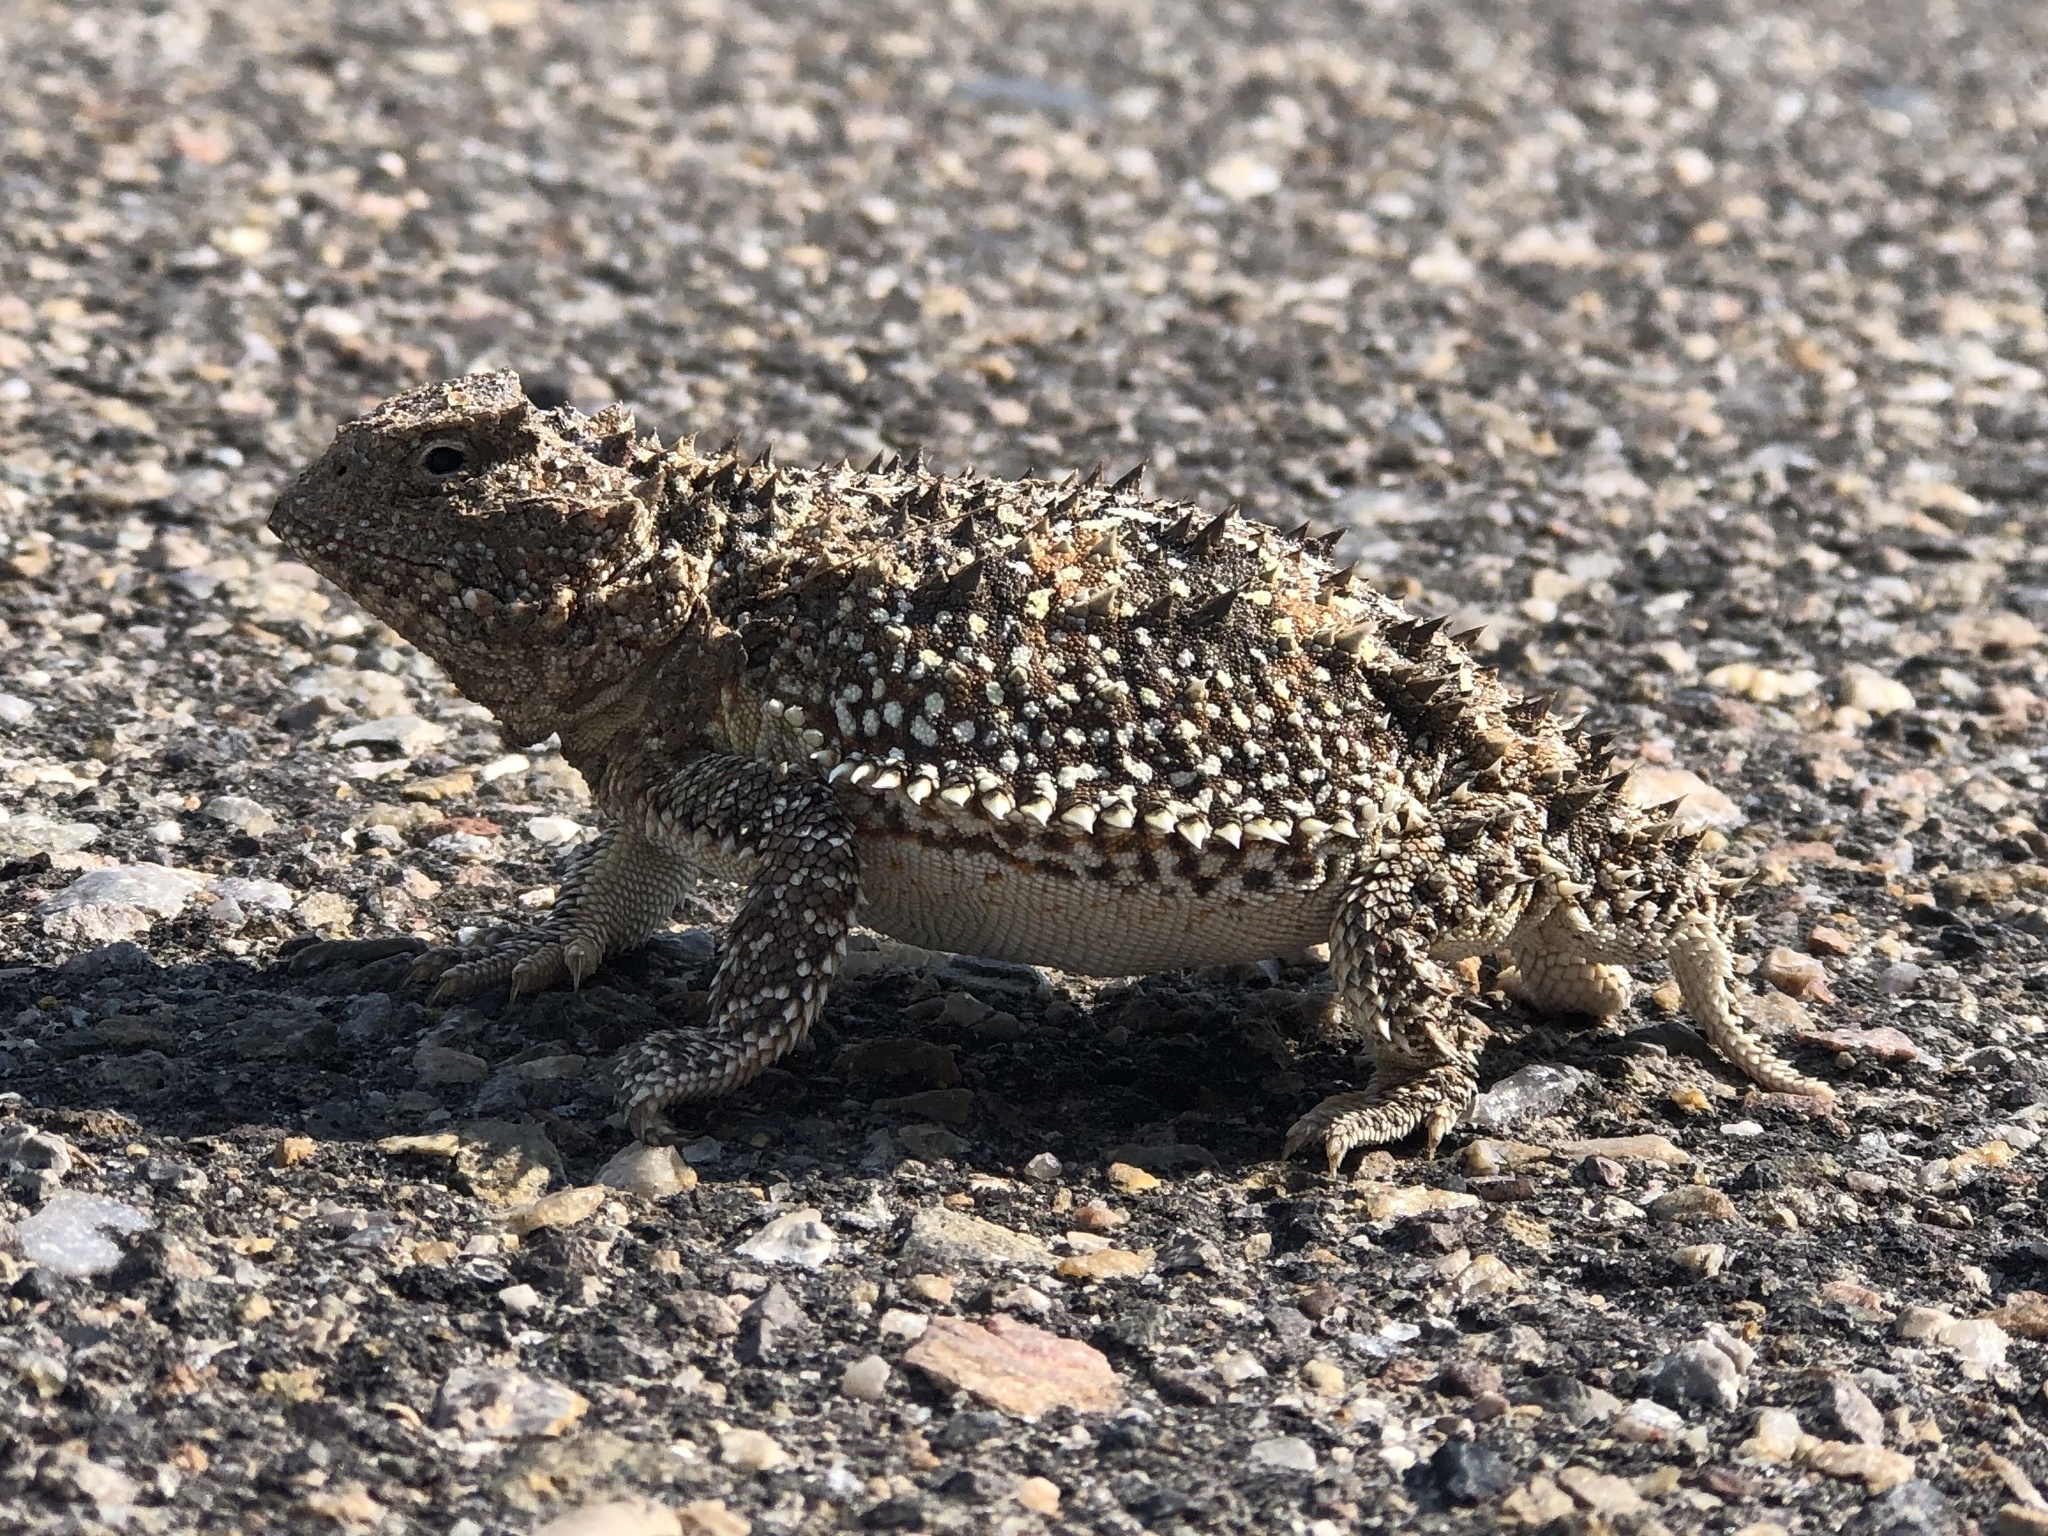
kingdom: Animalia
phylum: Chordata
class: Squamata
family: Phrynosomatidae
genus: Phrynosoma
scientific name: Phrynosoma hernandesi
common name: Greater short-horned lizard
